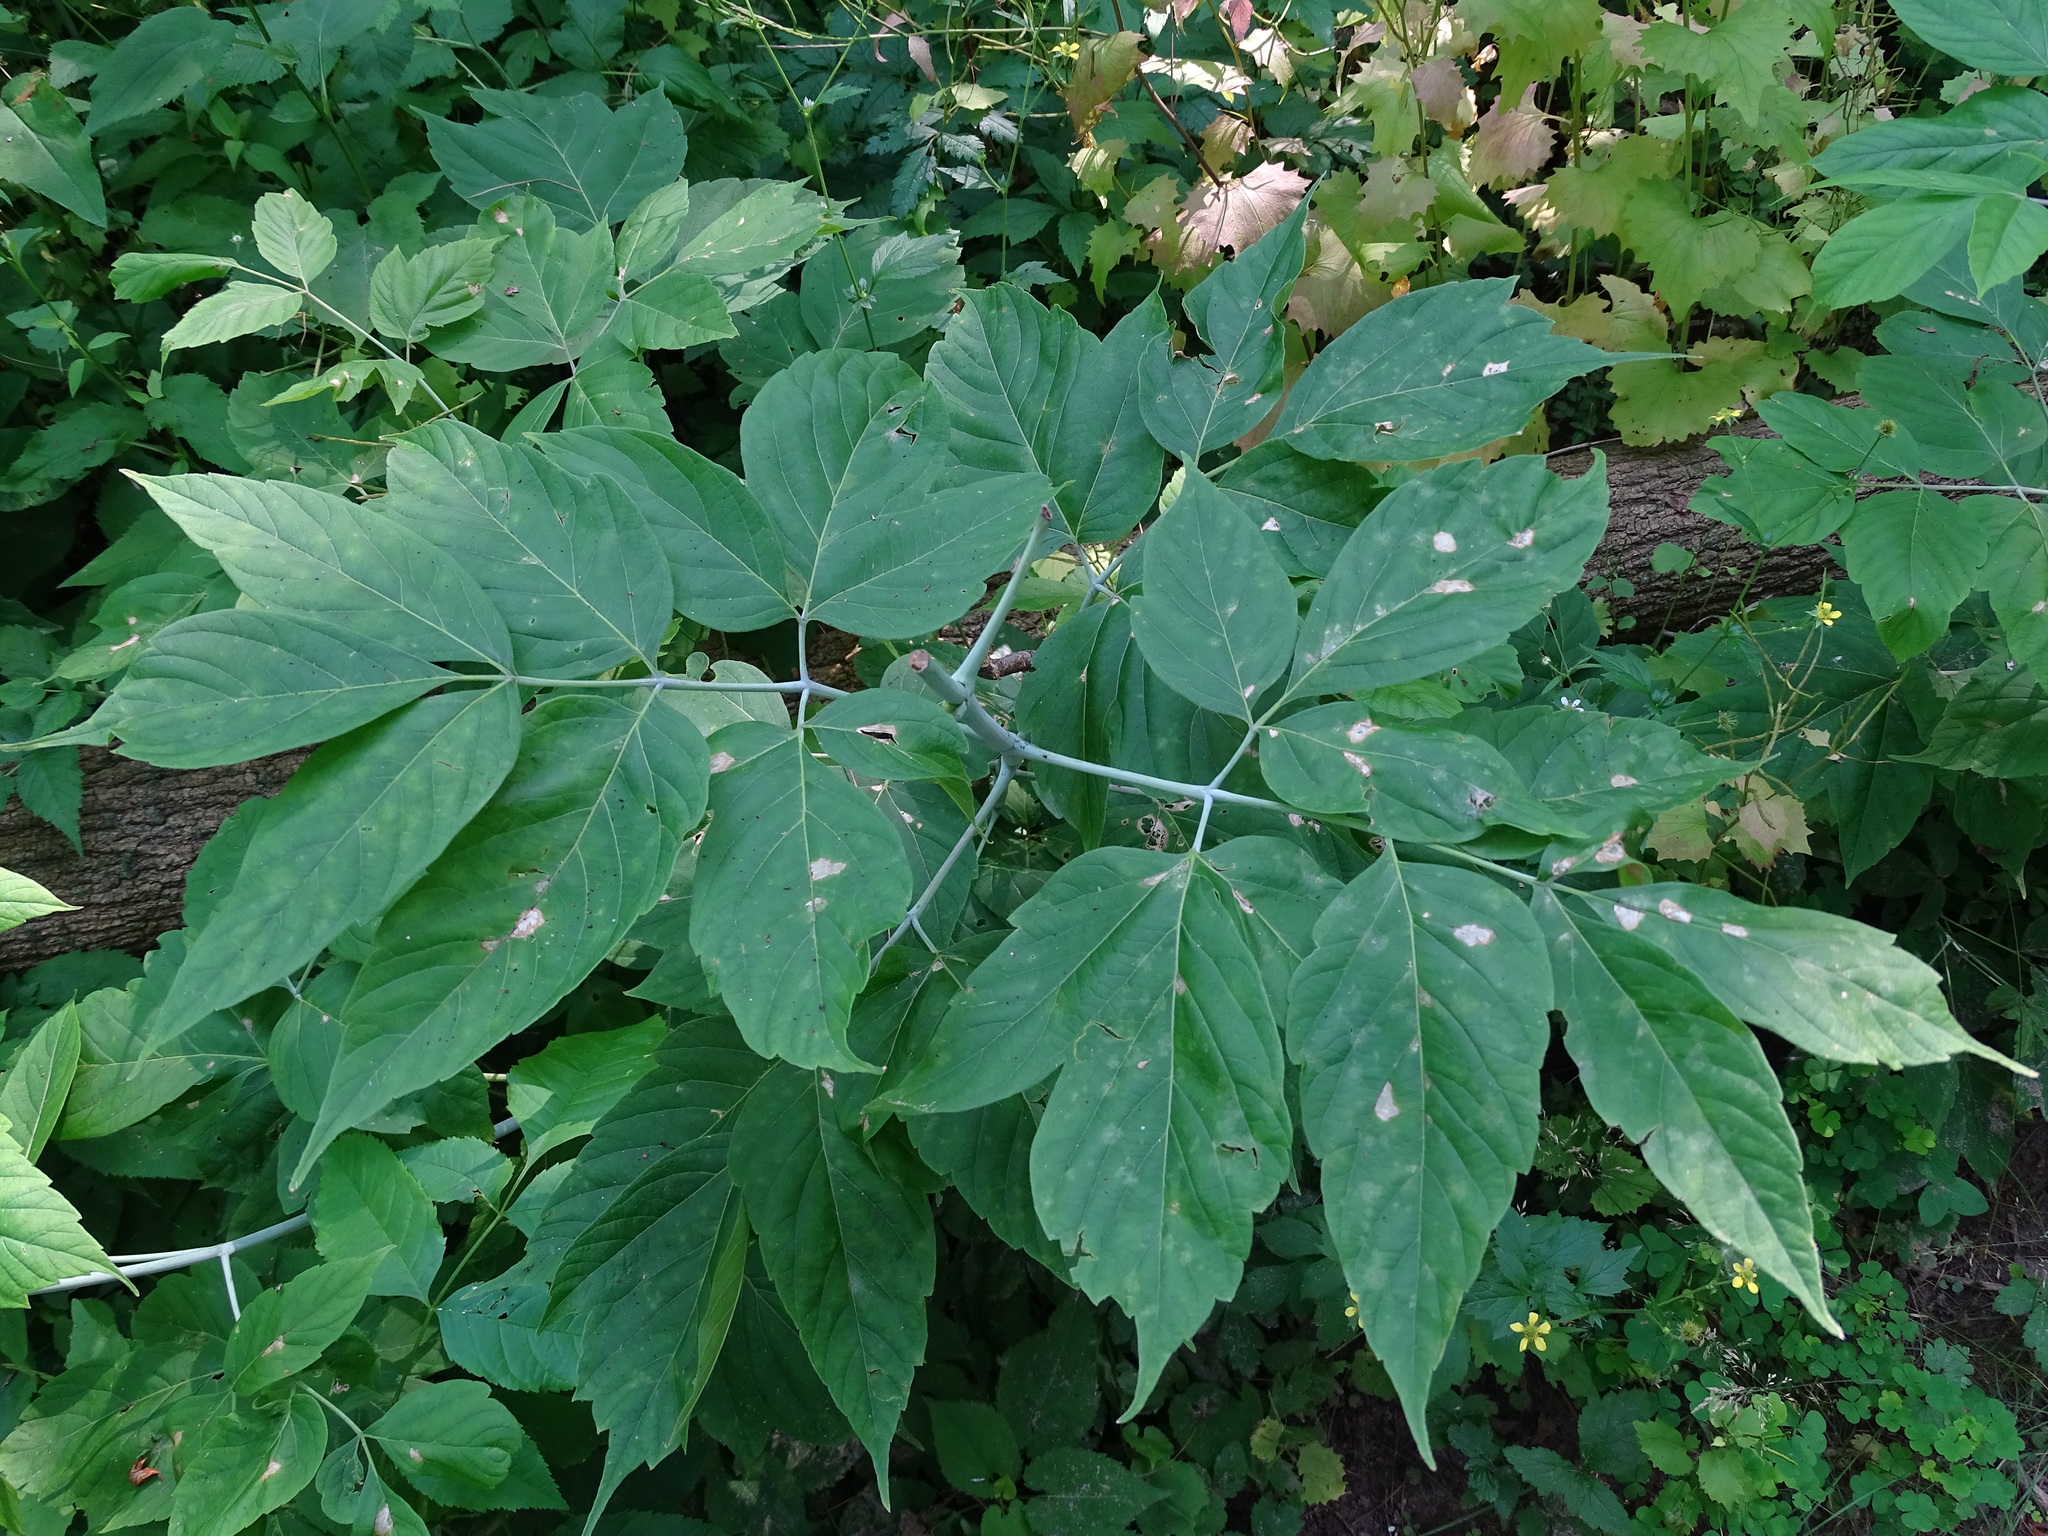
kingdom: Plantae
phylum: Tracheophyta
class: Magnoliopsida
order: Sapindales
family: Sapindaceae
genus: Acer
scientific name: Acer negundo
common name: Ashleaf maple
